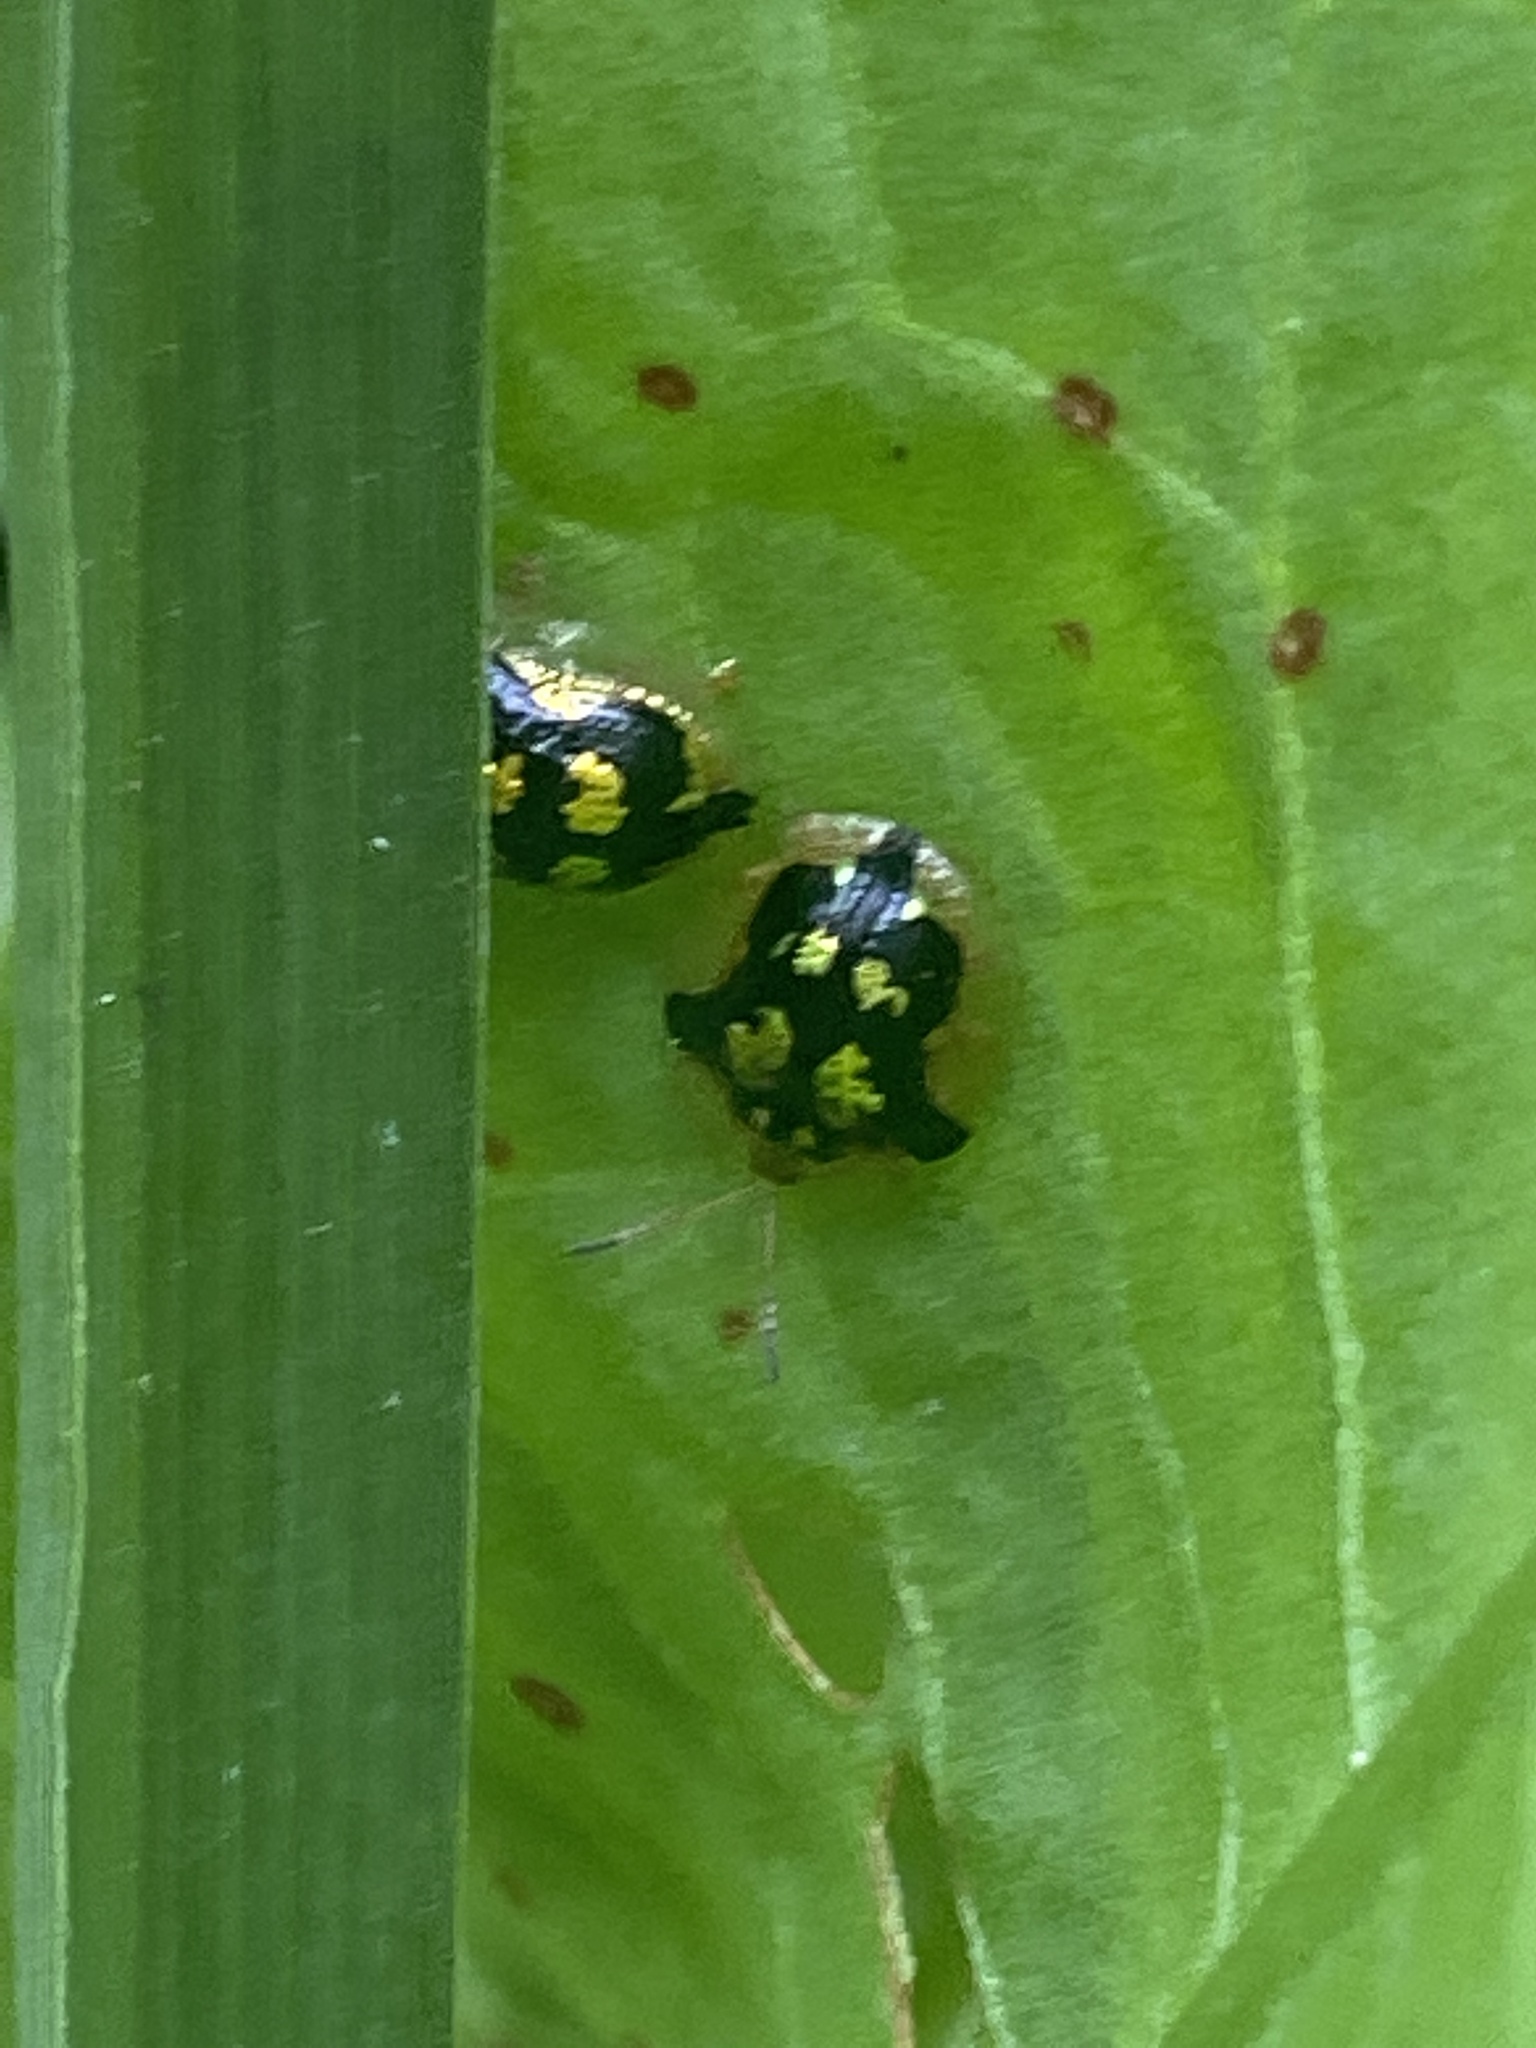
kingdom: Animalia
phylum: Arthropoda
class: Insecta
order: Coleoptera
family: Chrysomelidae
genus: Deloyala
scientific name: Deloyala guttata
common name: Mottled tortoise beetle
